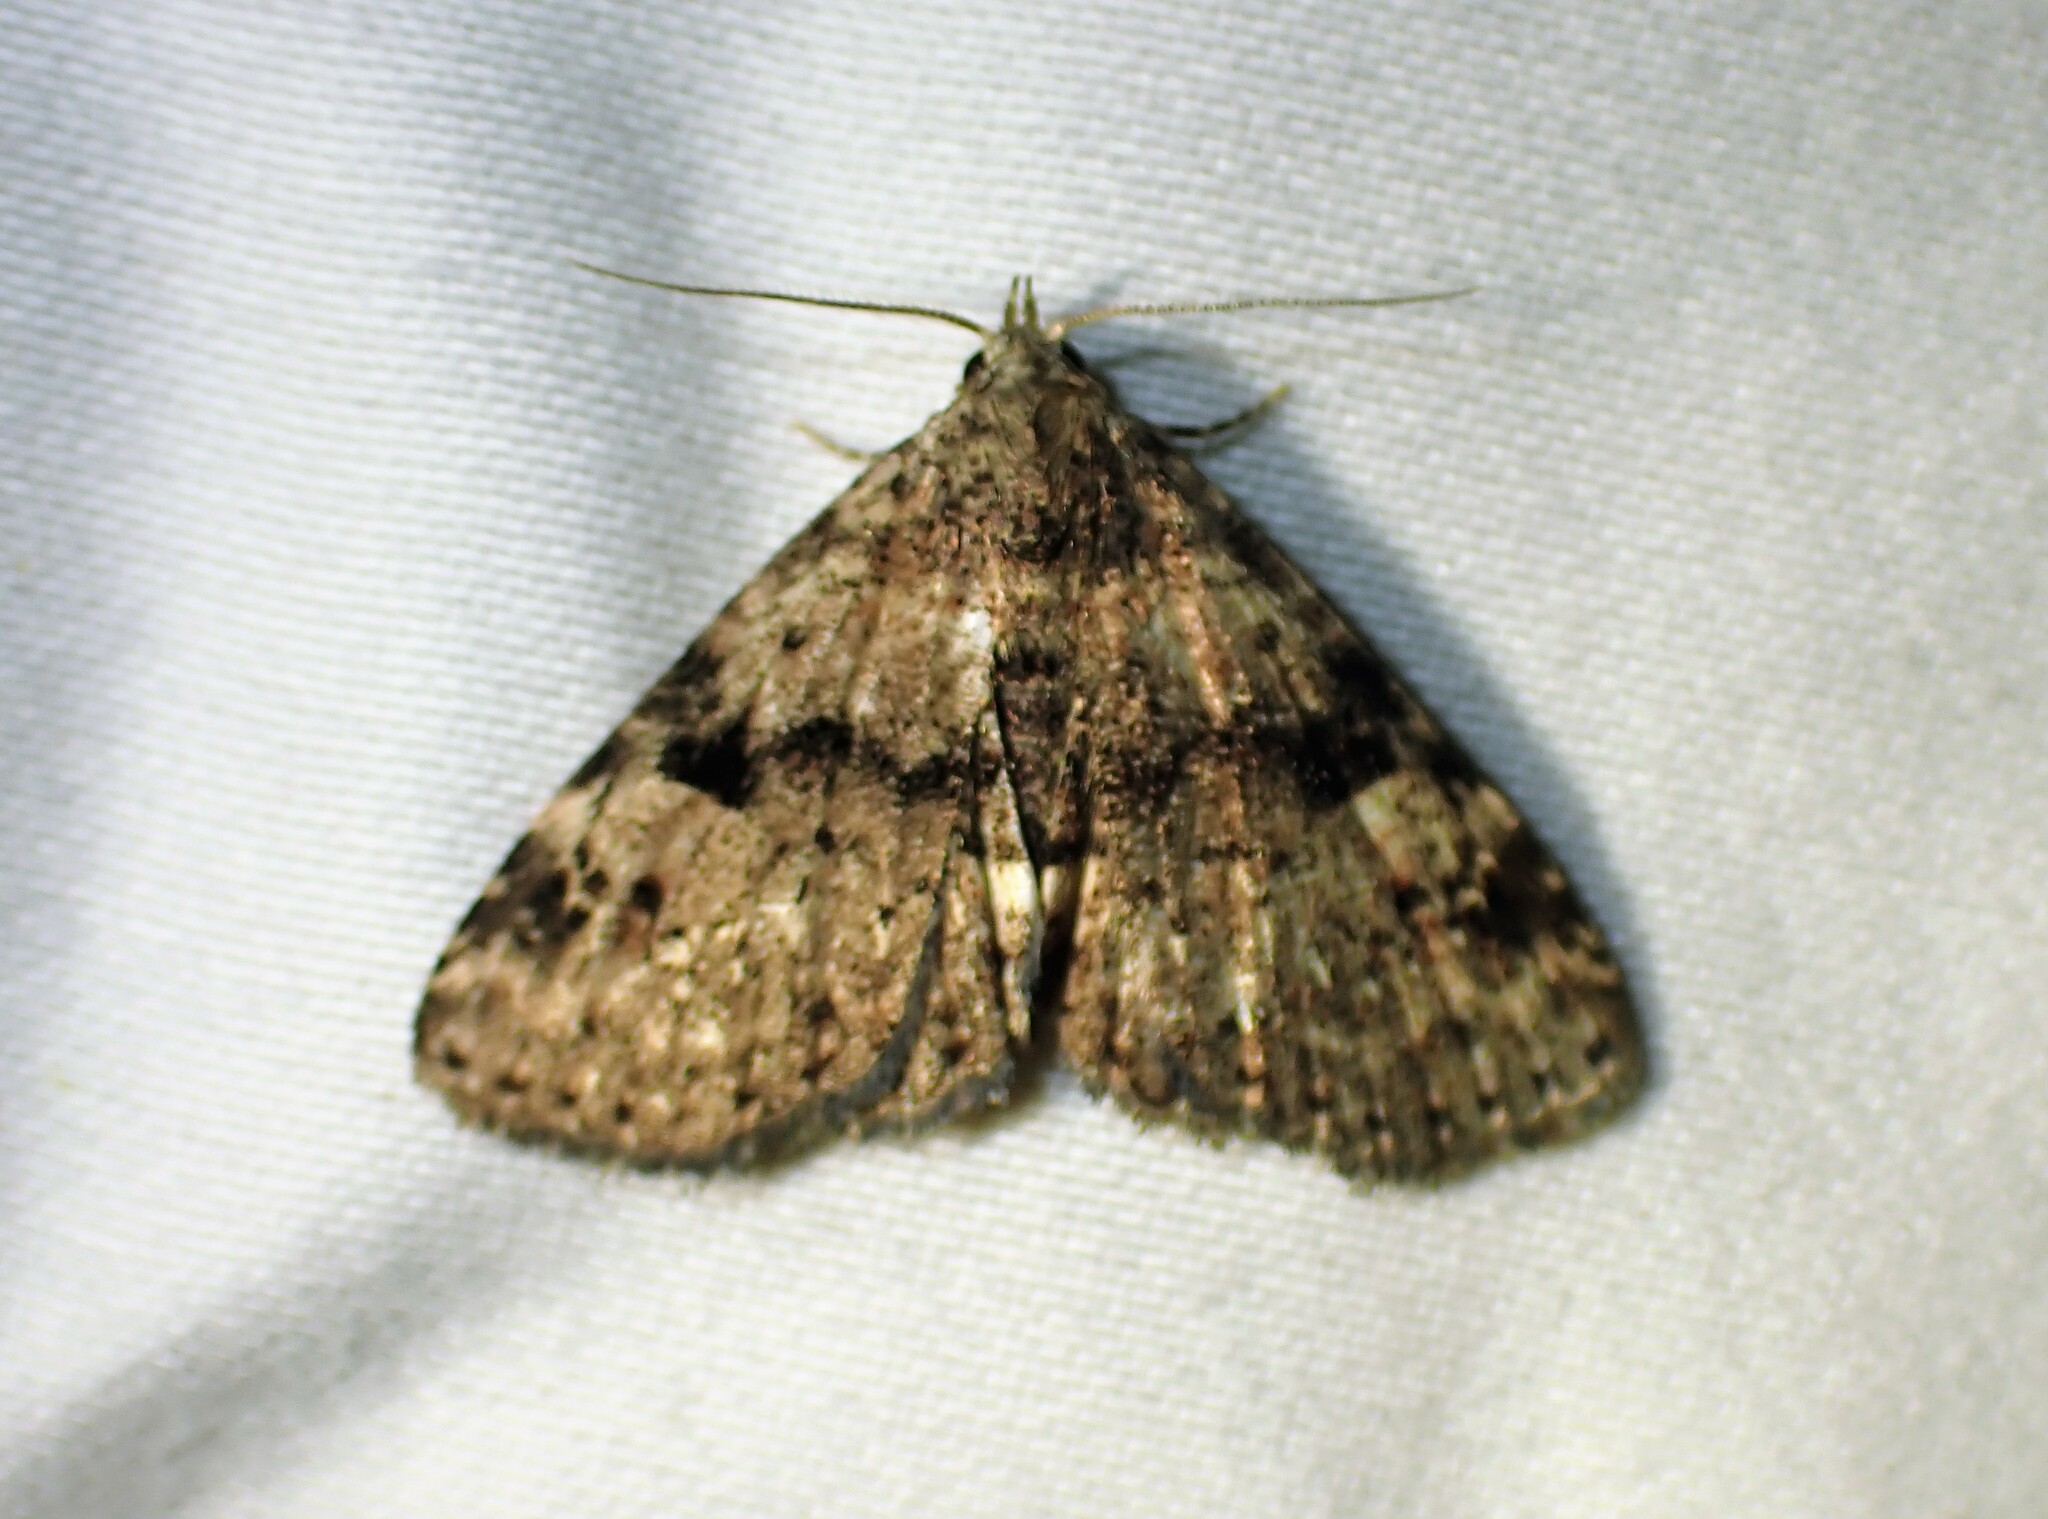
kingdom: Animalia
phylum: Arthropoda
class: Insecta
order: Lepidoptera
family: Erebidae
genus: Metalectra
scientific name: Metalectra quadrisignata
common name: Four-spotted fungus moth
